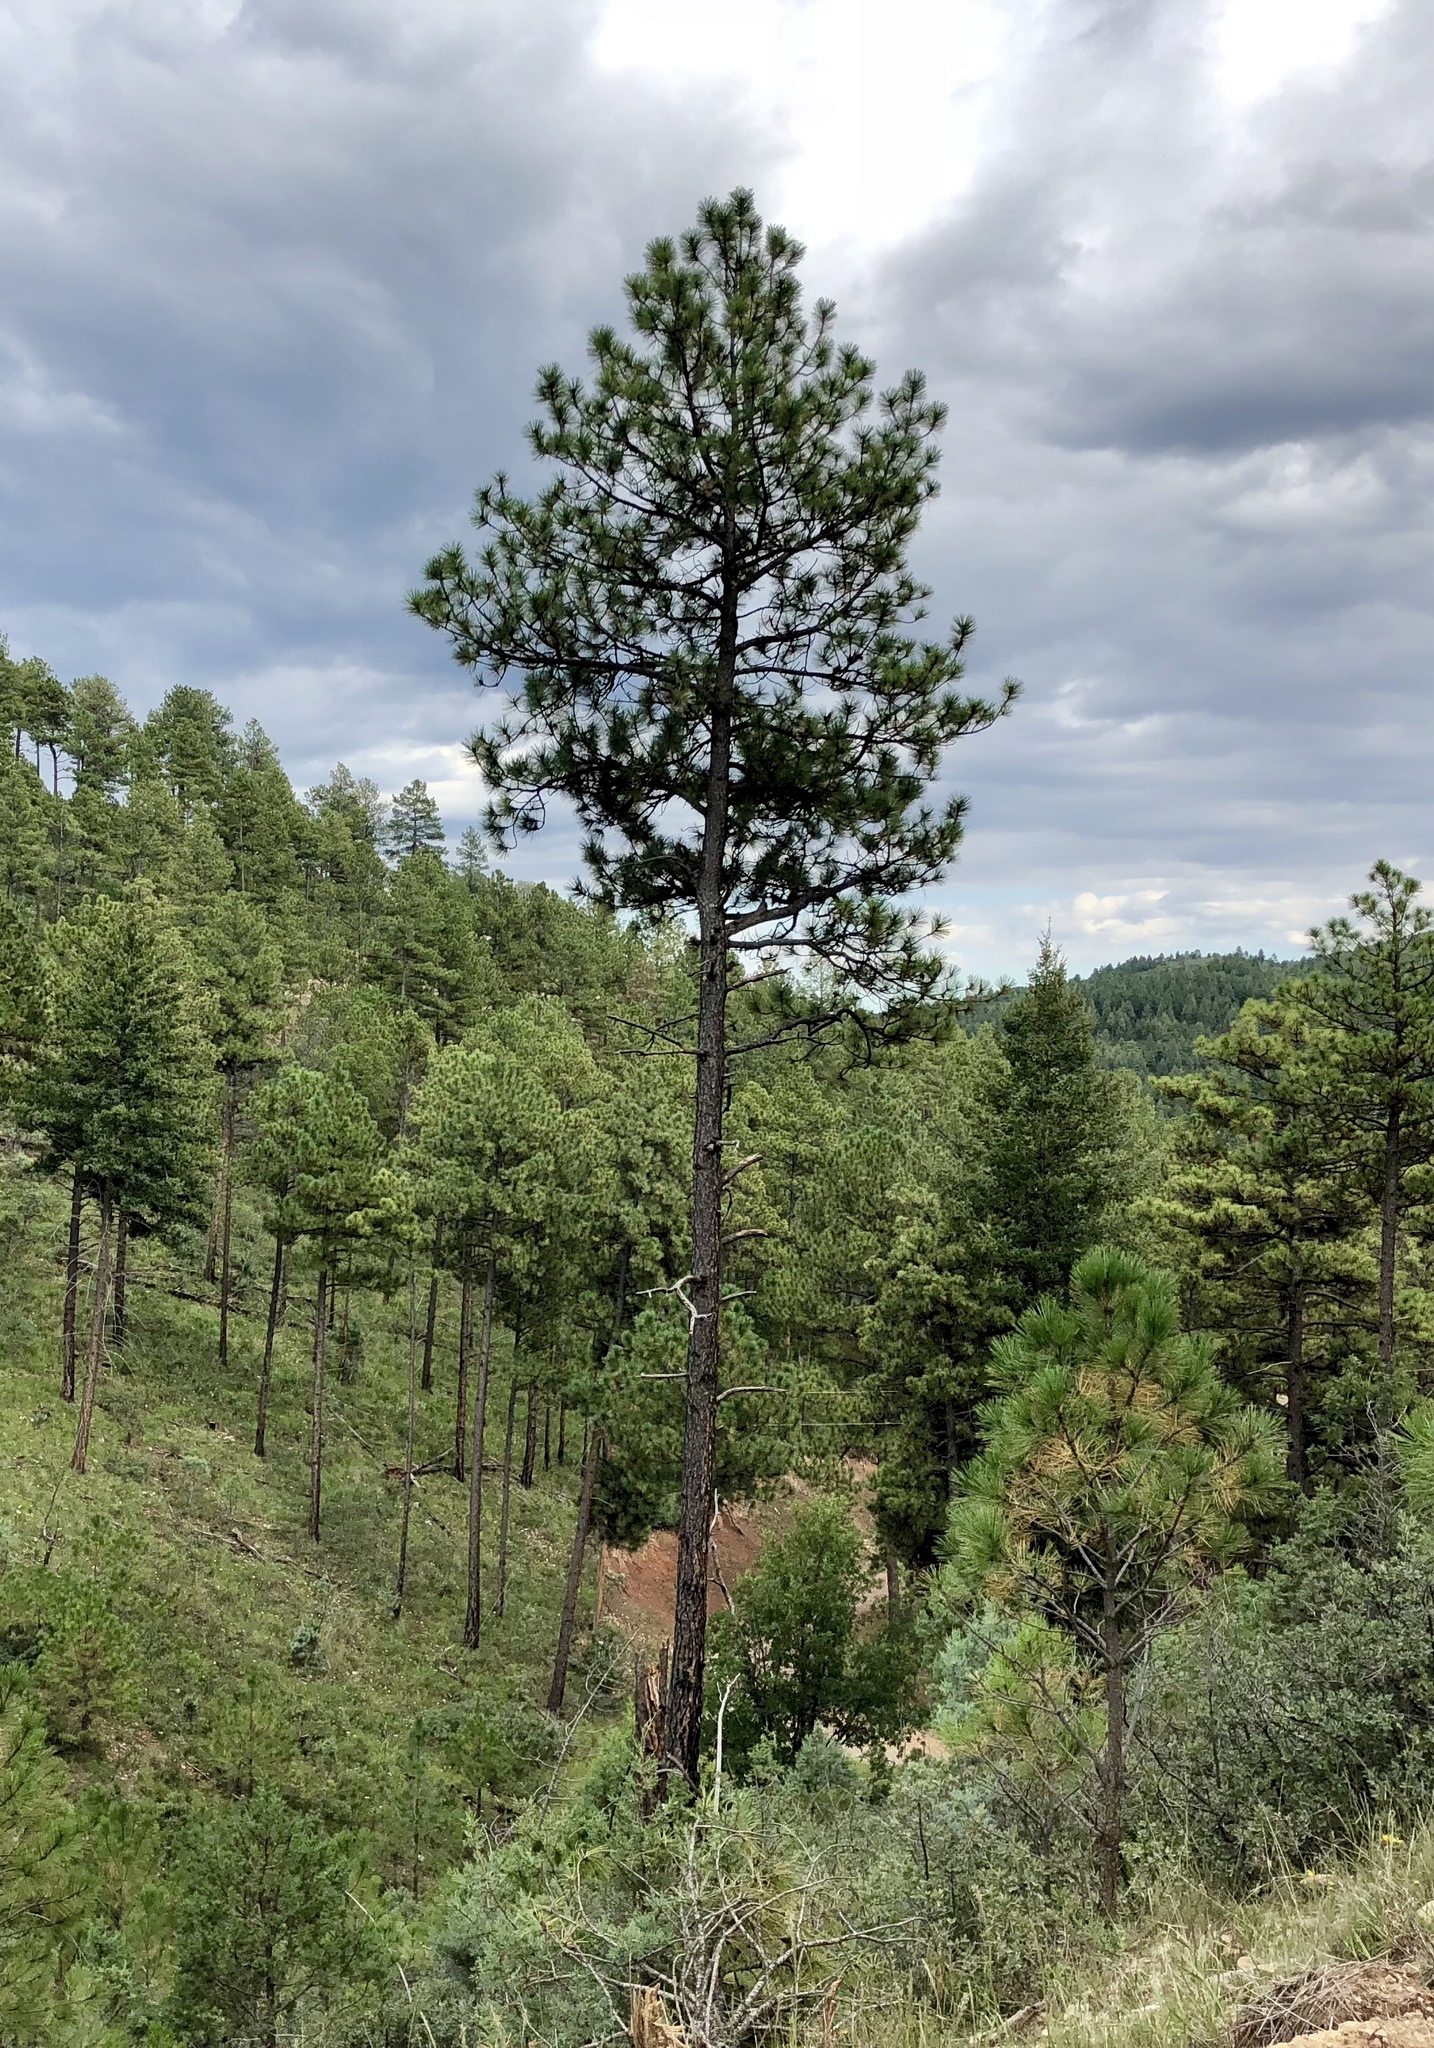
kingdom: Plantae
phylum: Tracheophyta
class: Pinopsida
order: Pinales
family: Pinaceae
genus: Pinus
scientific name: Pinus ponderosa
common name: Western yellow-pine
